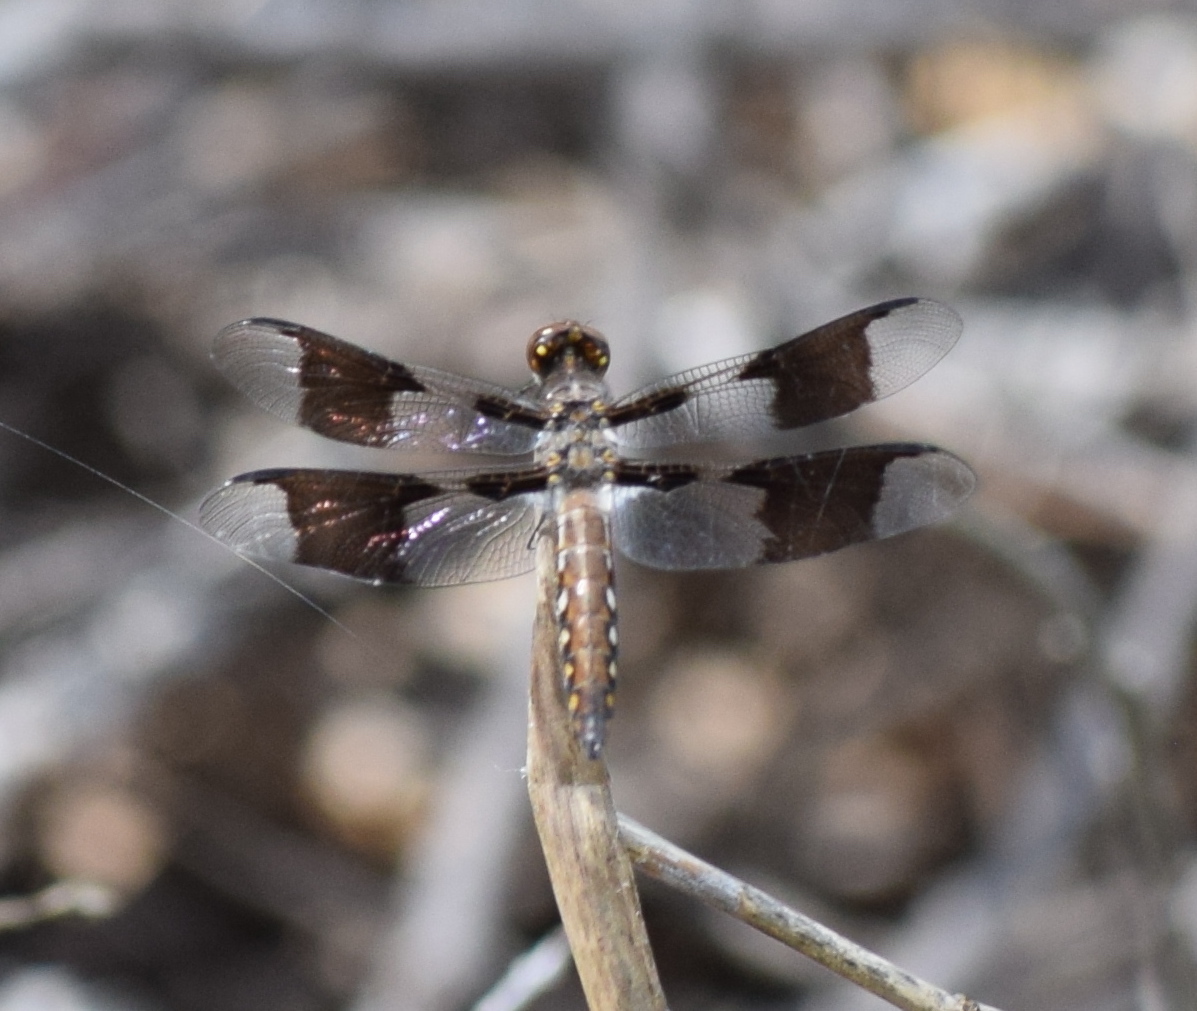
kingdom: Animalia
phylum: Arthropoda
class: Insecta
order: Odonata
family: Libellulidae
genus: Plathemis
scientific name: Plathemis lydia
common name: Common whitetail
